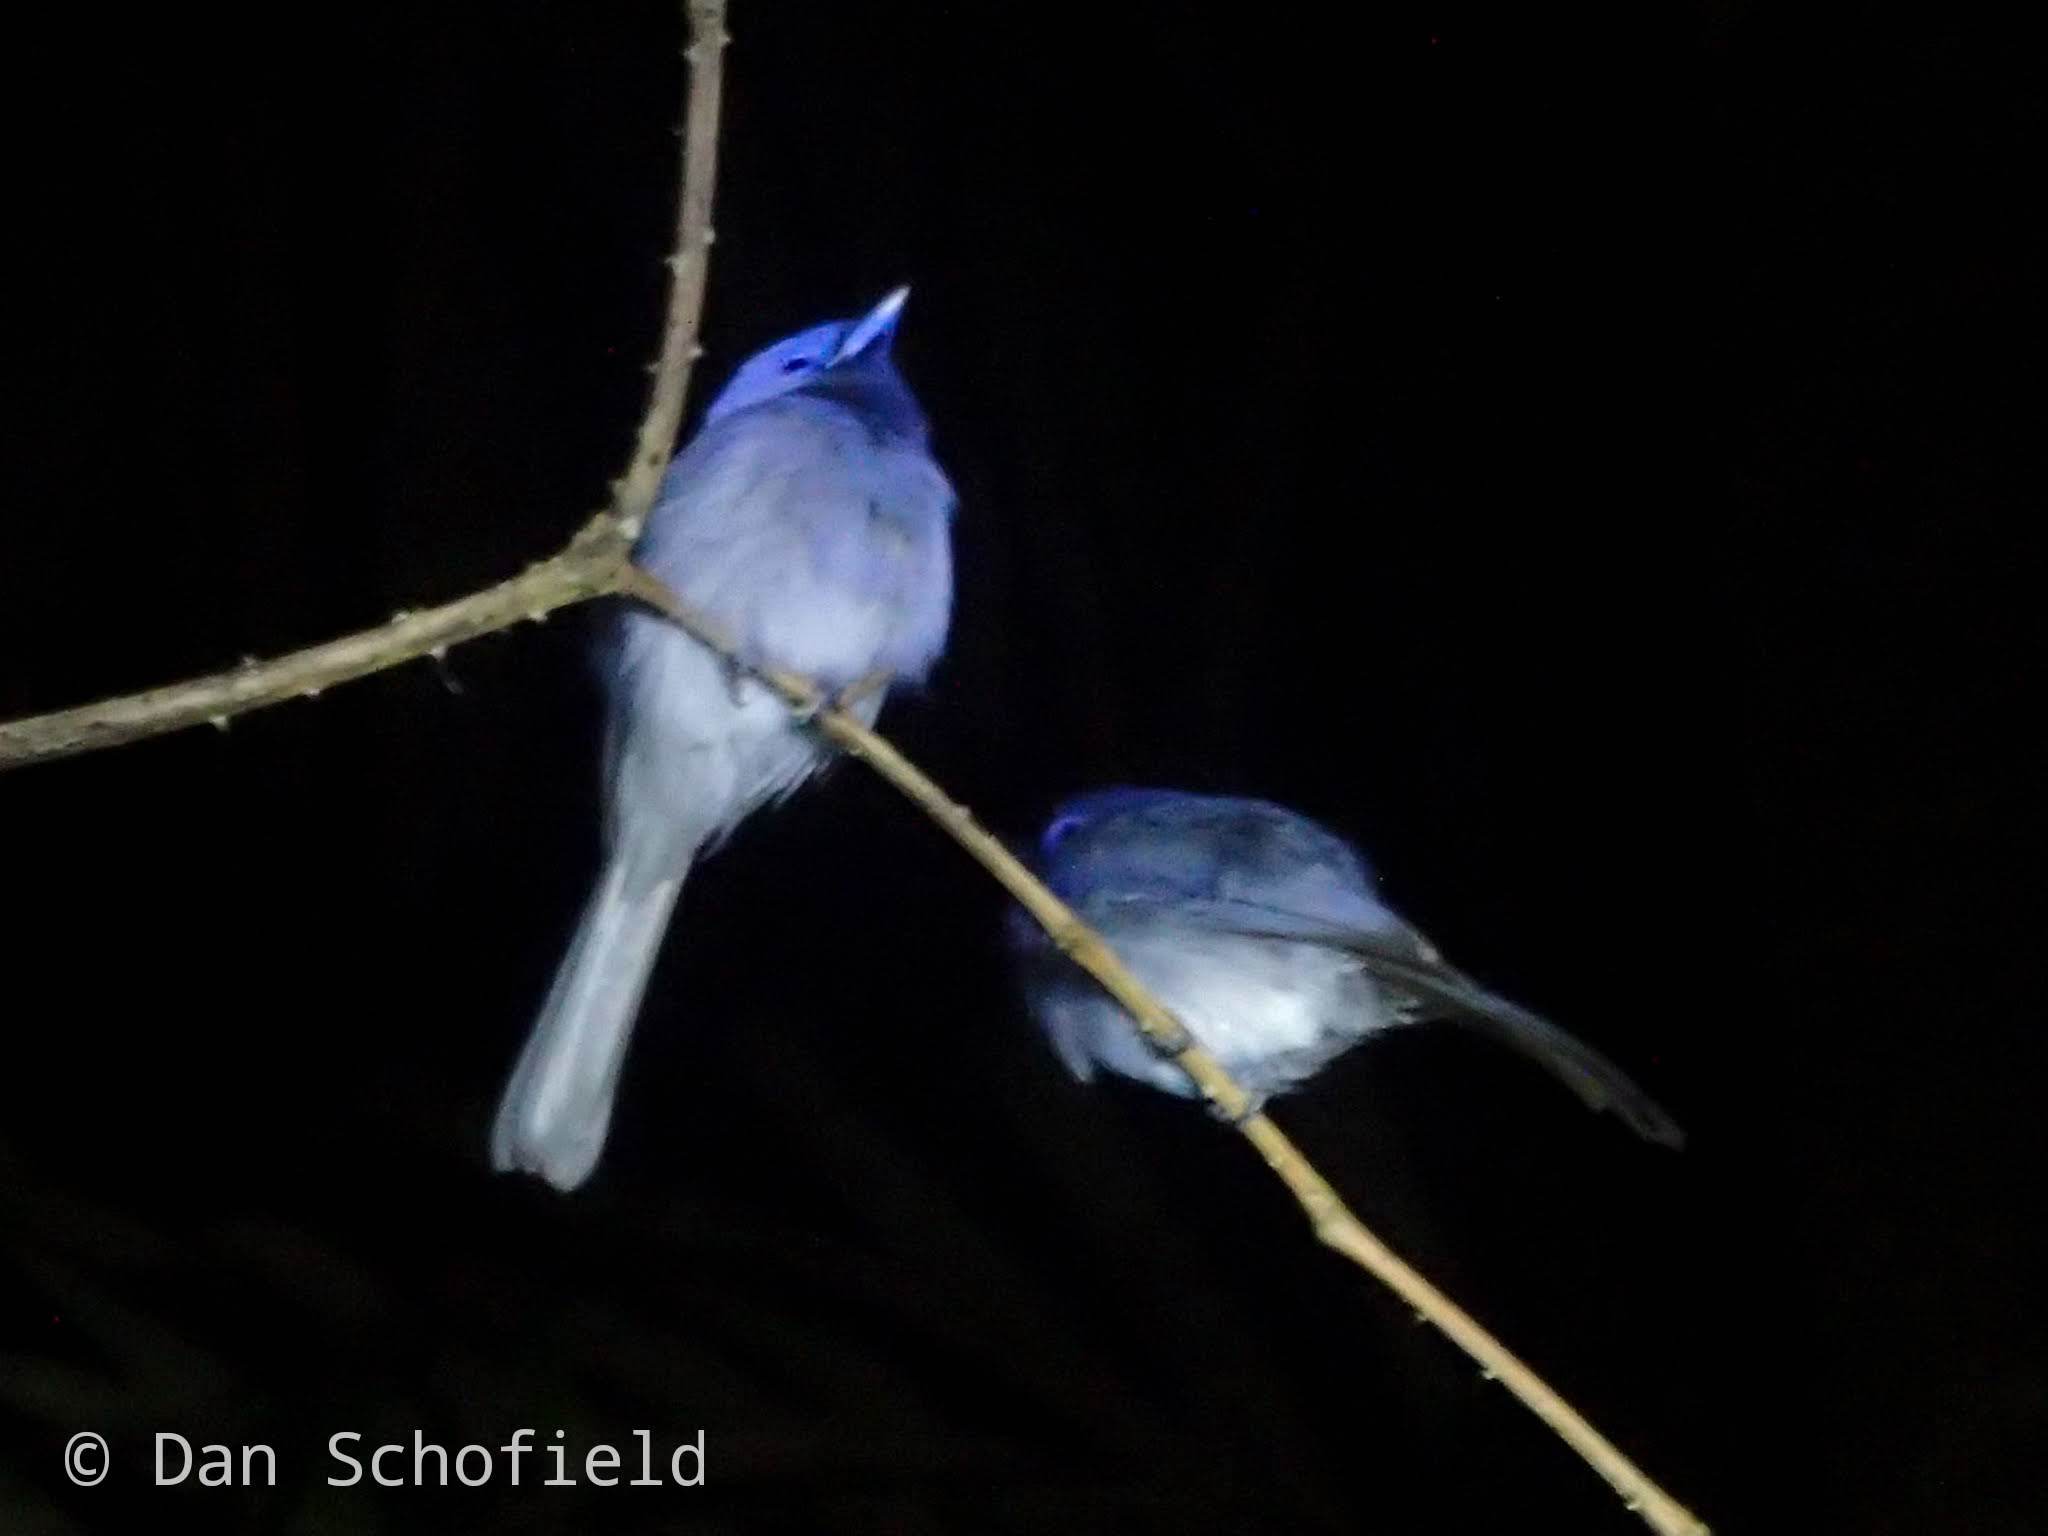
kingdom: Animalia
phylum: Chordata
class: Aves
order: Passeriformes
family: Monarchidae
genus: Hypothymis
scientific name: Hypothymis azurea
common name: Black-naped monarch
